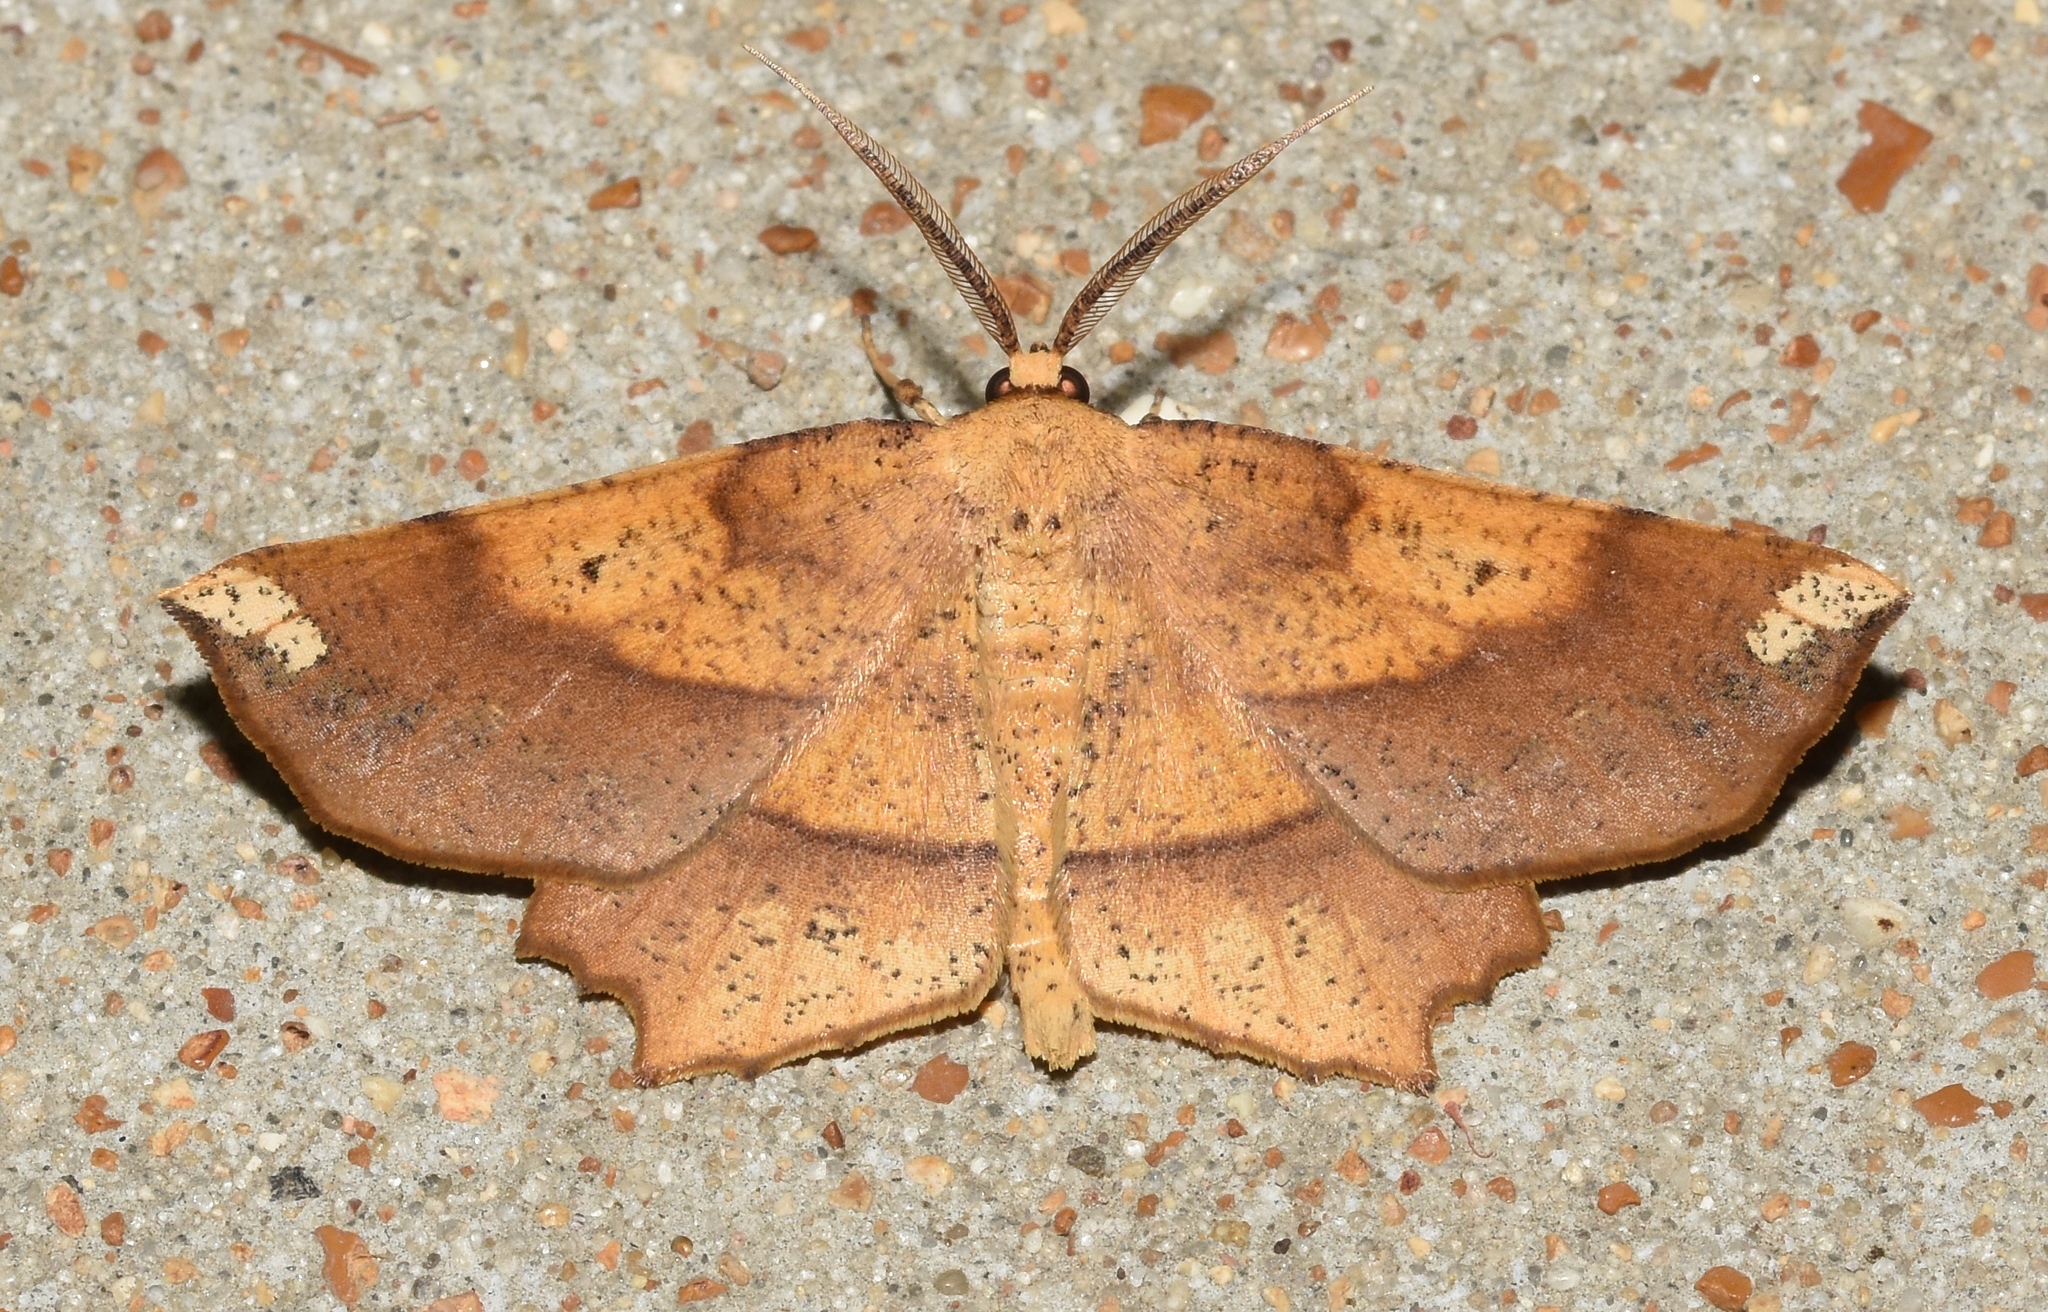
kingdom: Animalia
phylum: Arthropoda
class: Insecta
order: Lepidoptera
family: Geometridae
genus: Euchlaena
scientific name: Euchlaena amoenaria
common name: Deep yellow euchlaena
